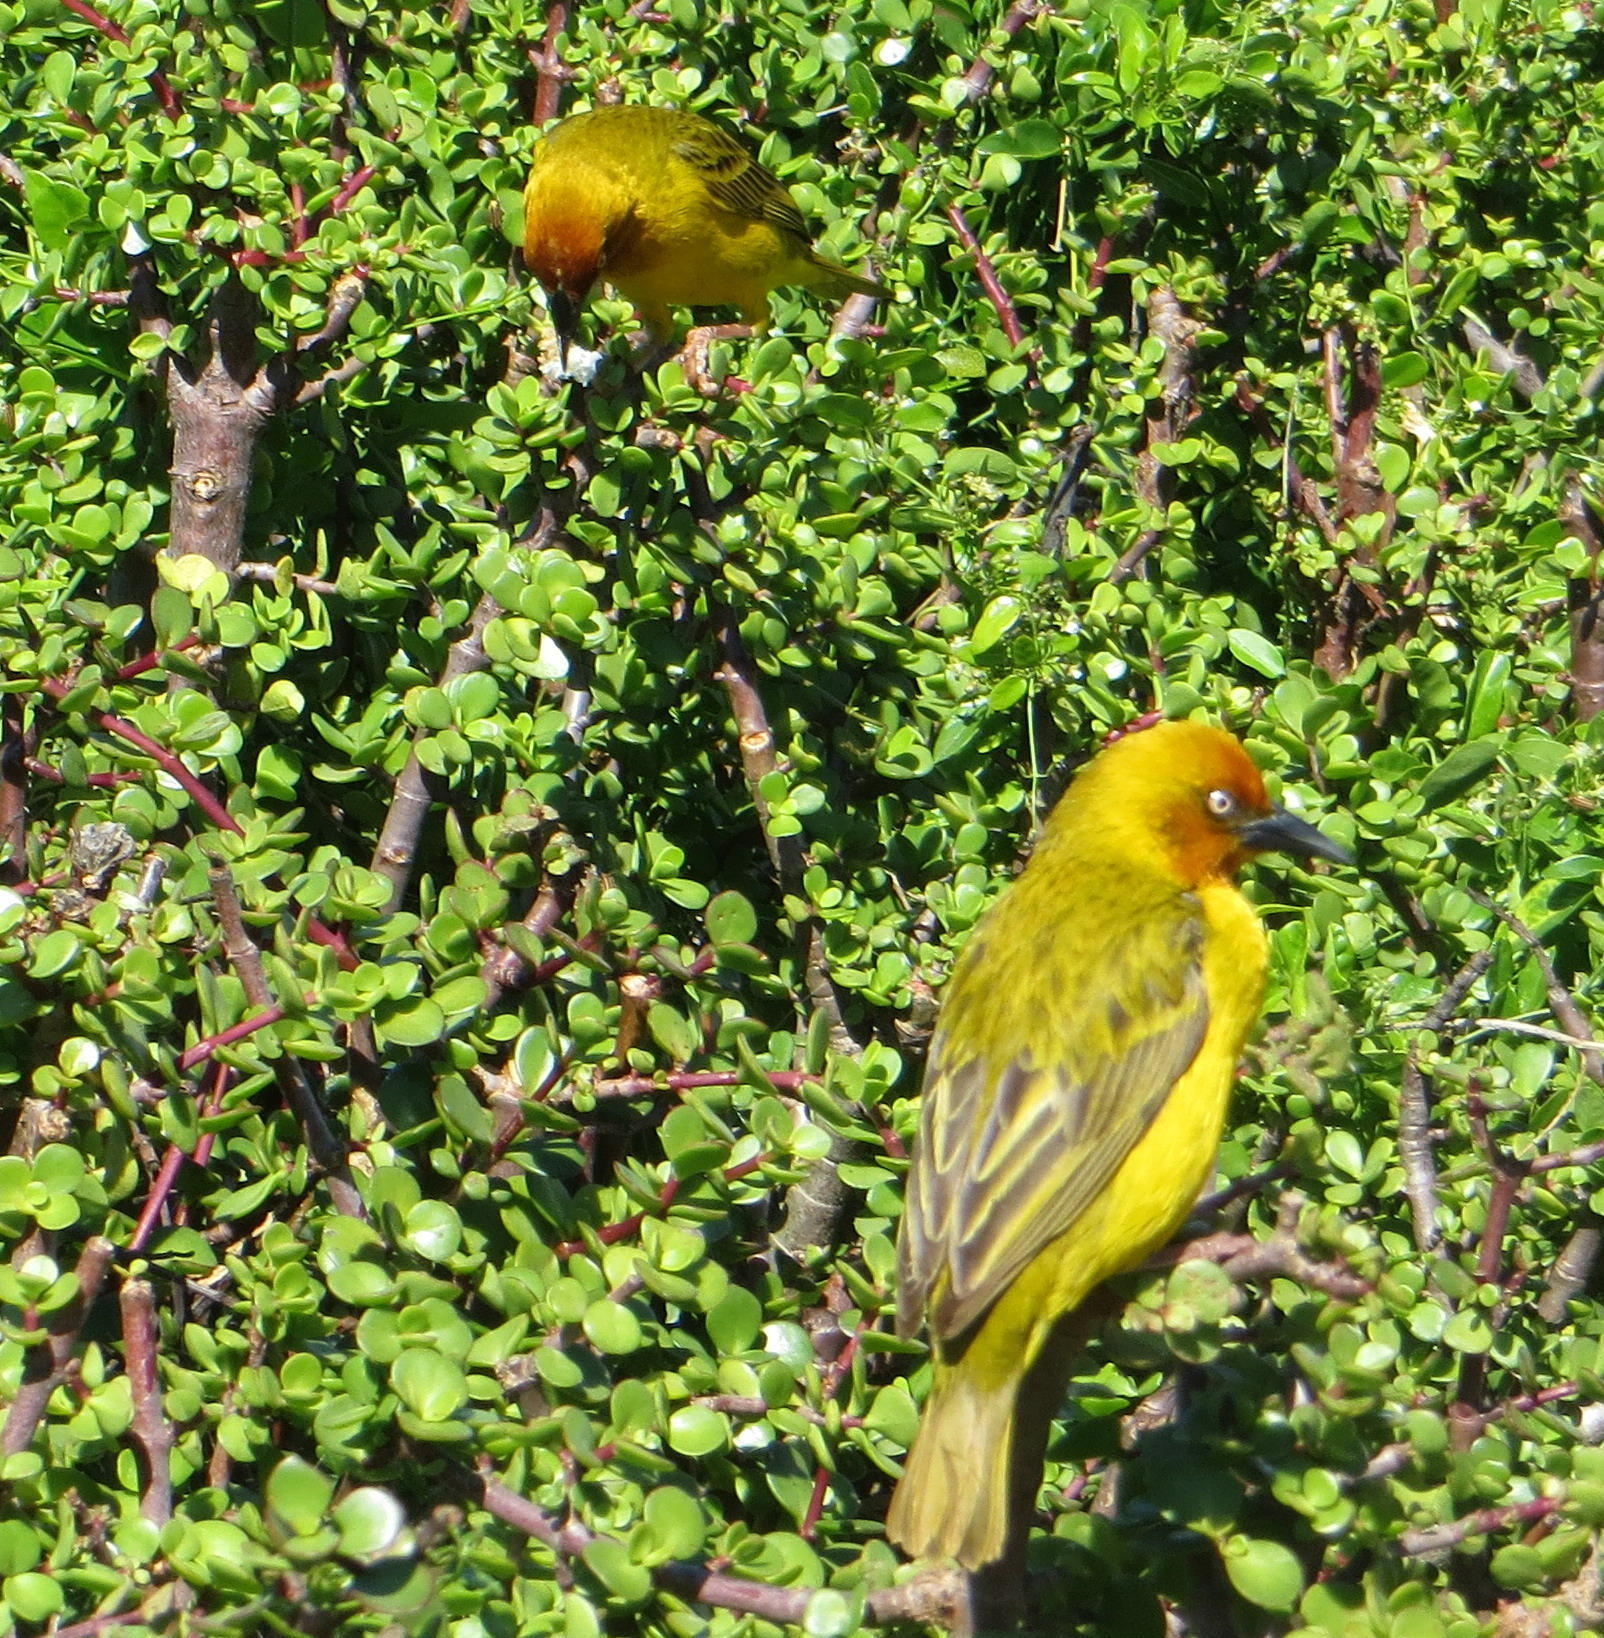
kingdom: Animalia
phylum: Chordata
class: Aves
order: Passeriformes
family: Ploceidae
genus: Ploceus
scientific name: Ploceus capensis
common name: Cape weaver
